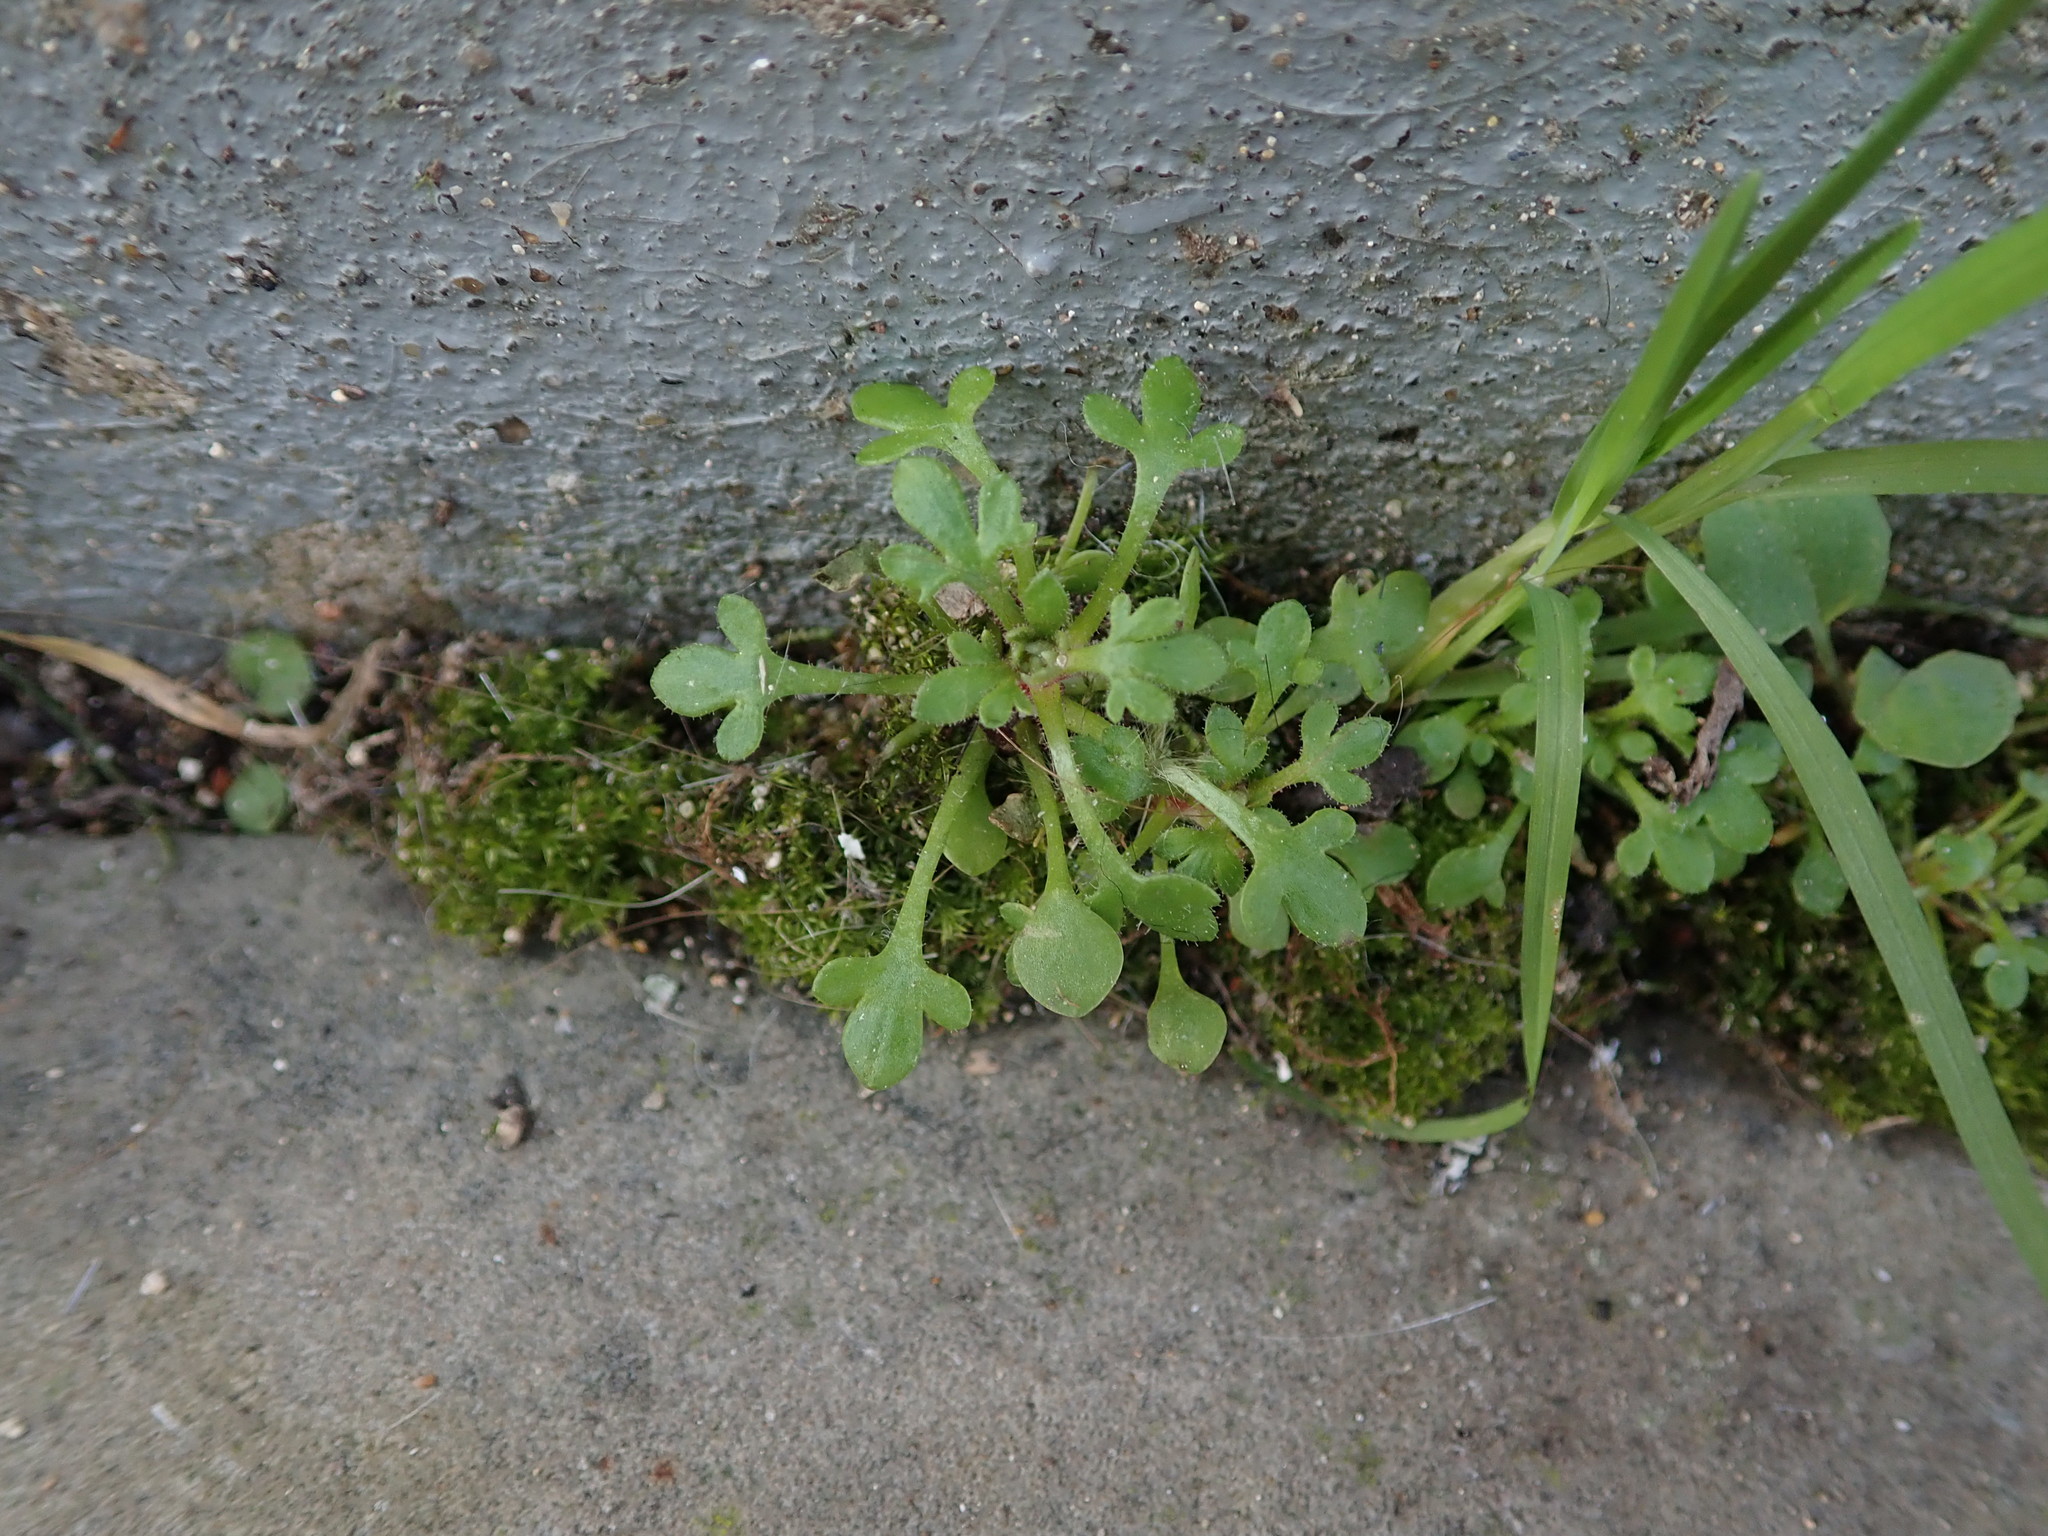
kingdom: Plantae
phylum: Tracheophyta
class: Magnoliopsida
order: Saxifragales
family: Saxifragaceae
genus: Saxifraga
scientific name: Saxifraga tridactylites
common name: Rue-leaved saxifrage
